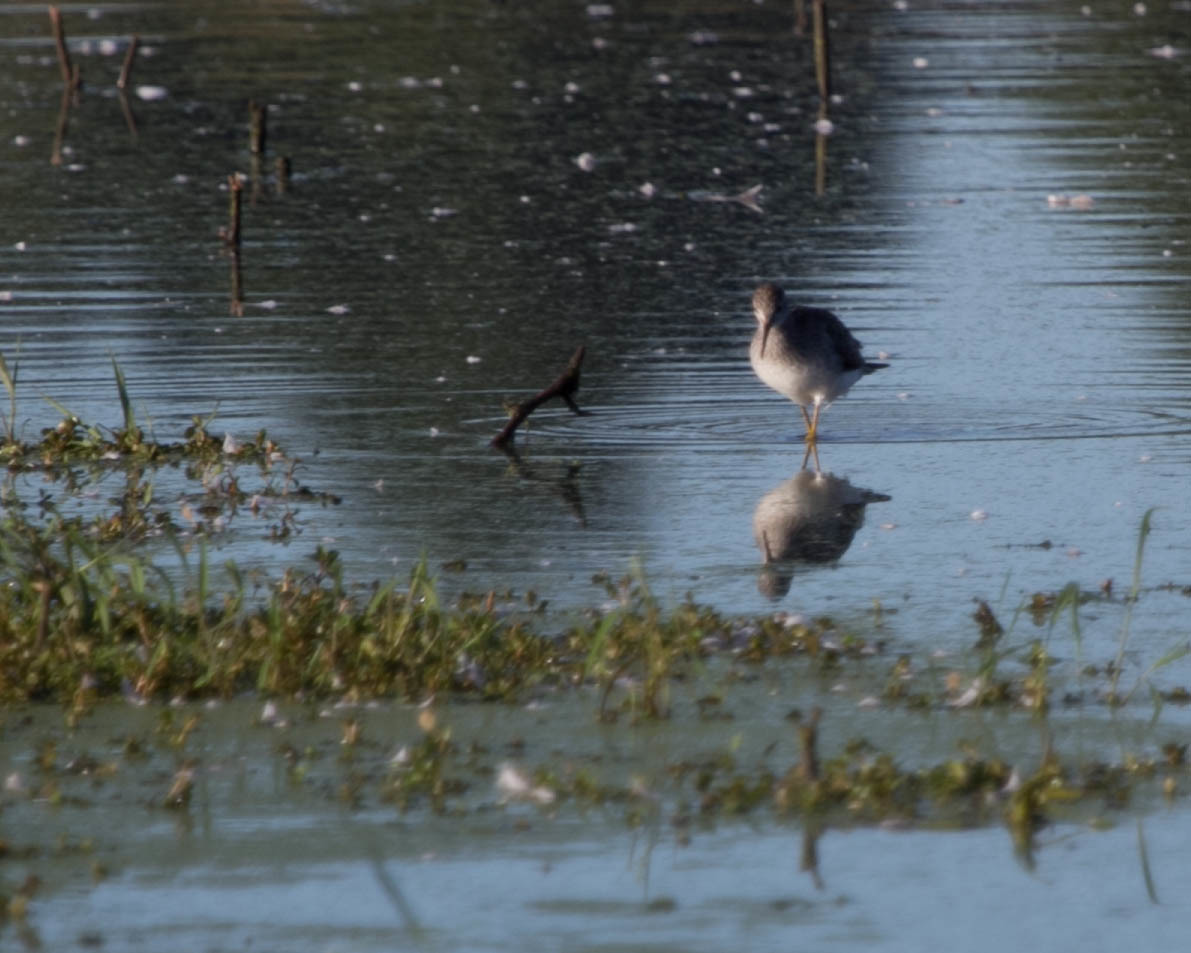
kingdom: Animalia
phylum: Chordata
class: Aves
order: Charadriiformes
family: Scolopacidae
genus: Tringa
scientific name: Tringa
